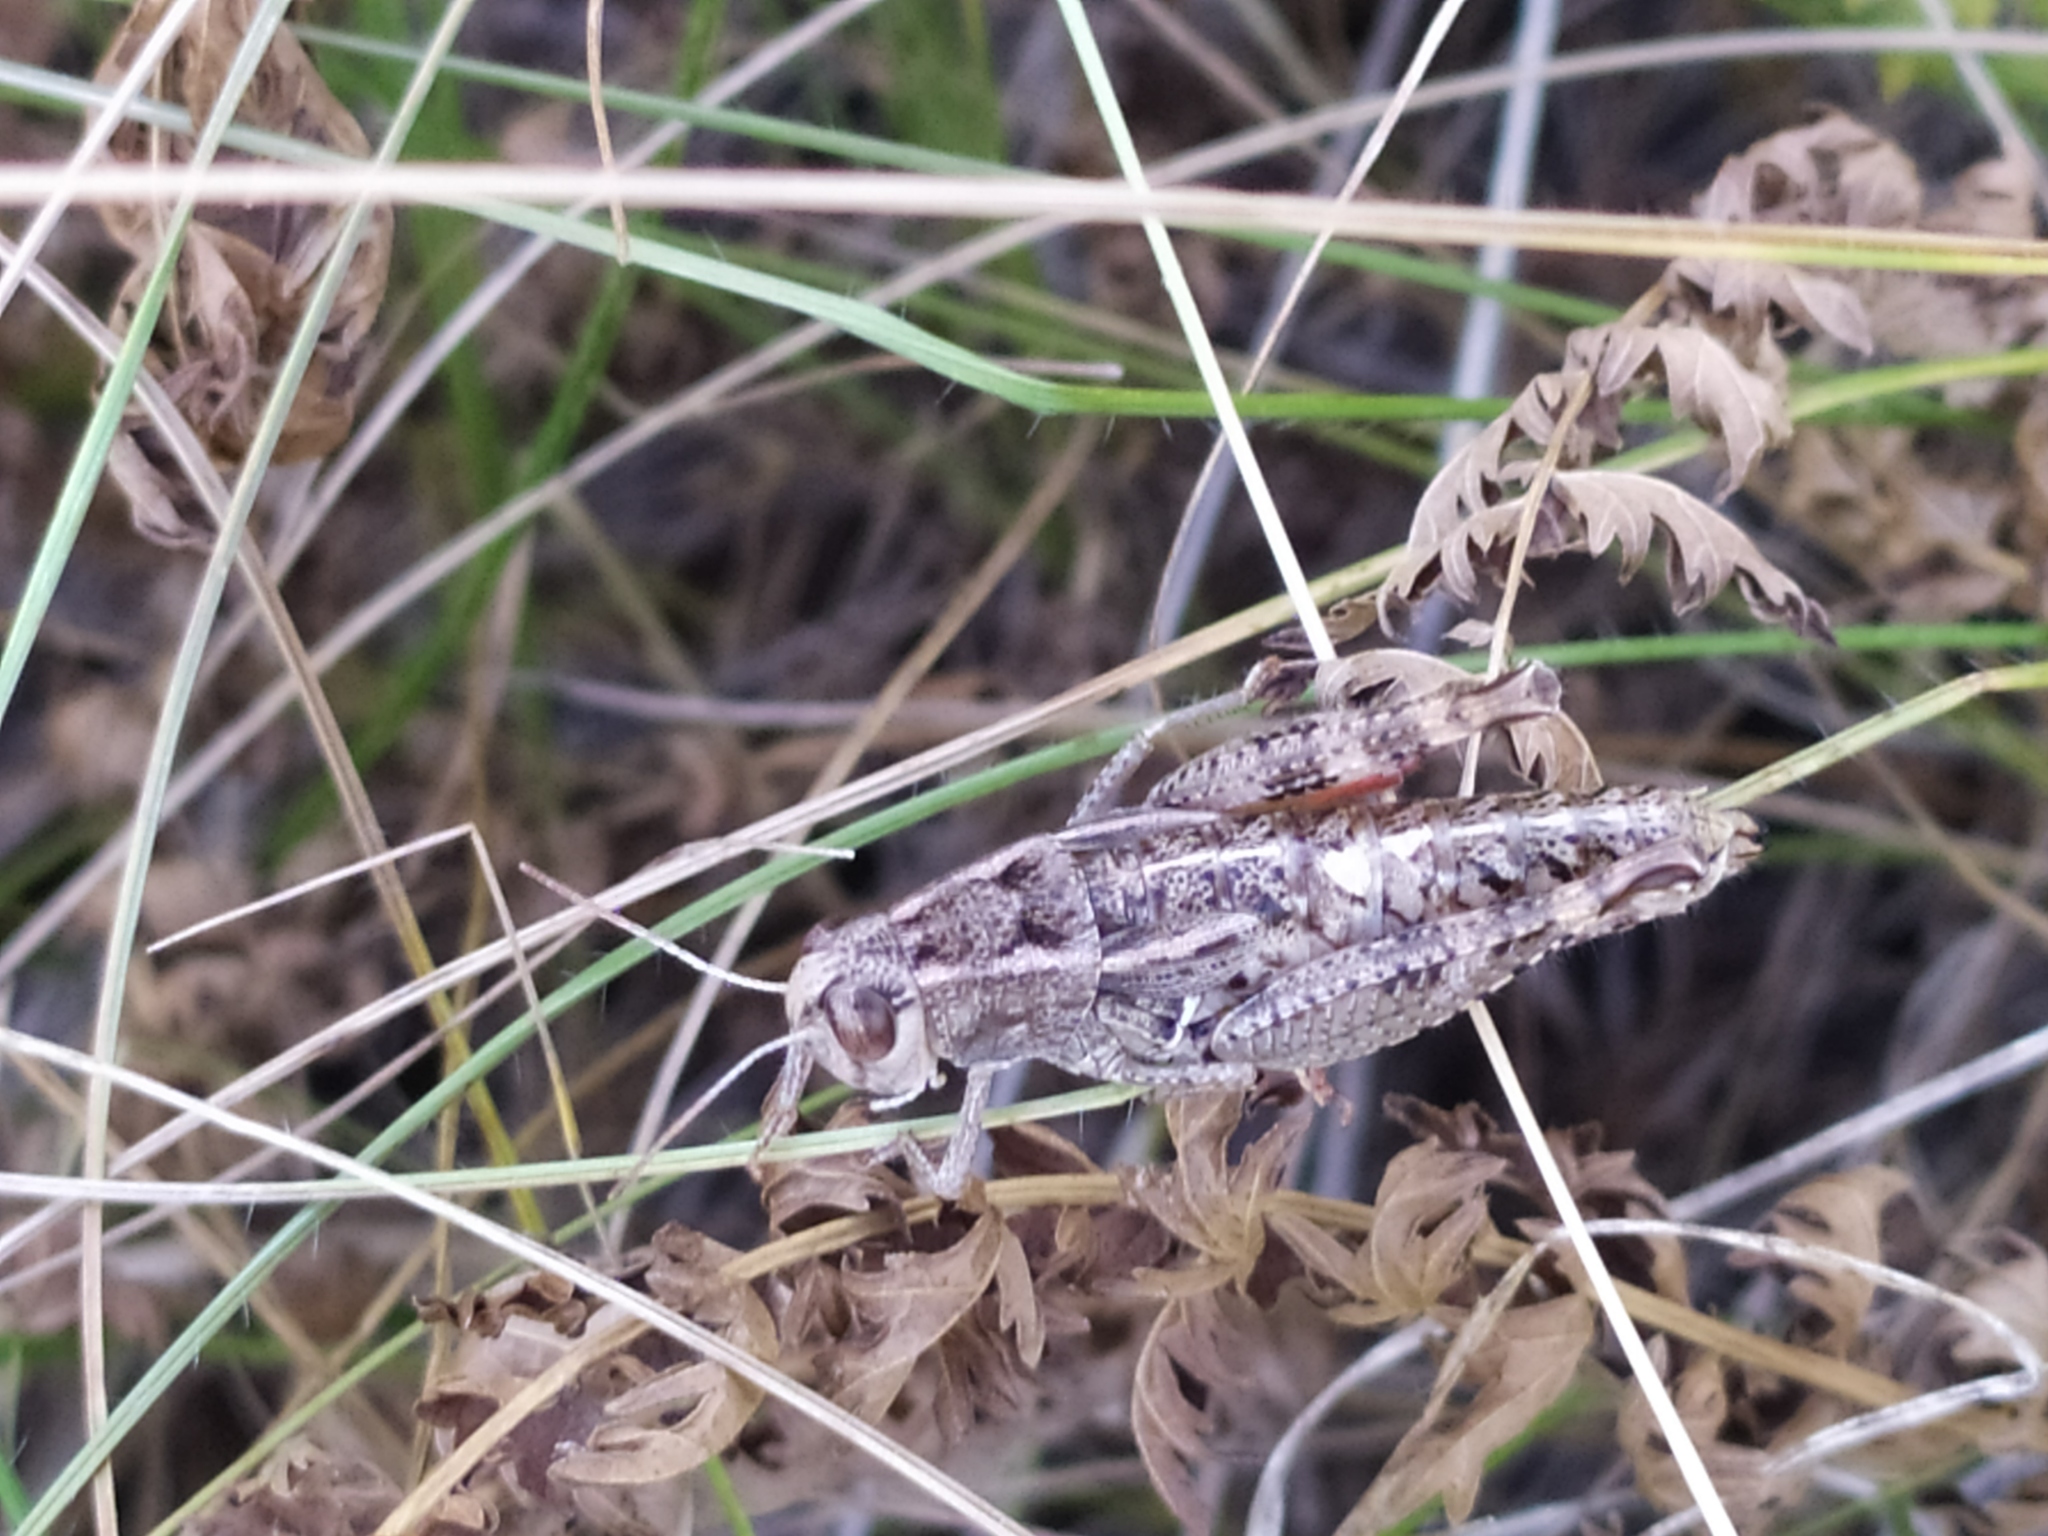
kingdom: Animalia
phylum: Arthropoda
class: Insecta
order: Orthoptera
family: Acrididae
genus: Paracaloptenus
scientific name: Paracaloptenus cristatus
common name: Istrian pincer grasshopper
